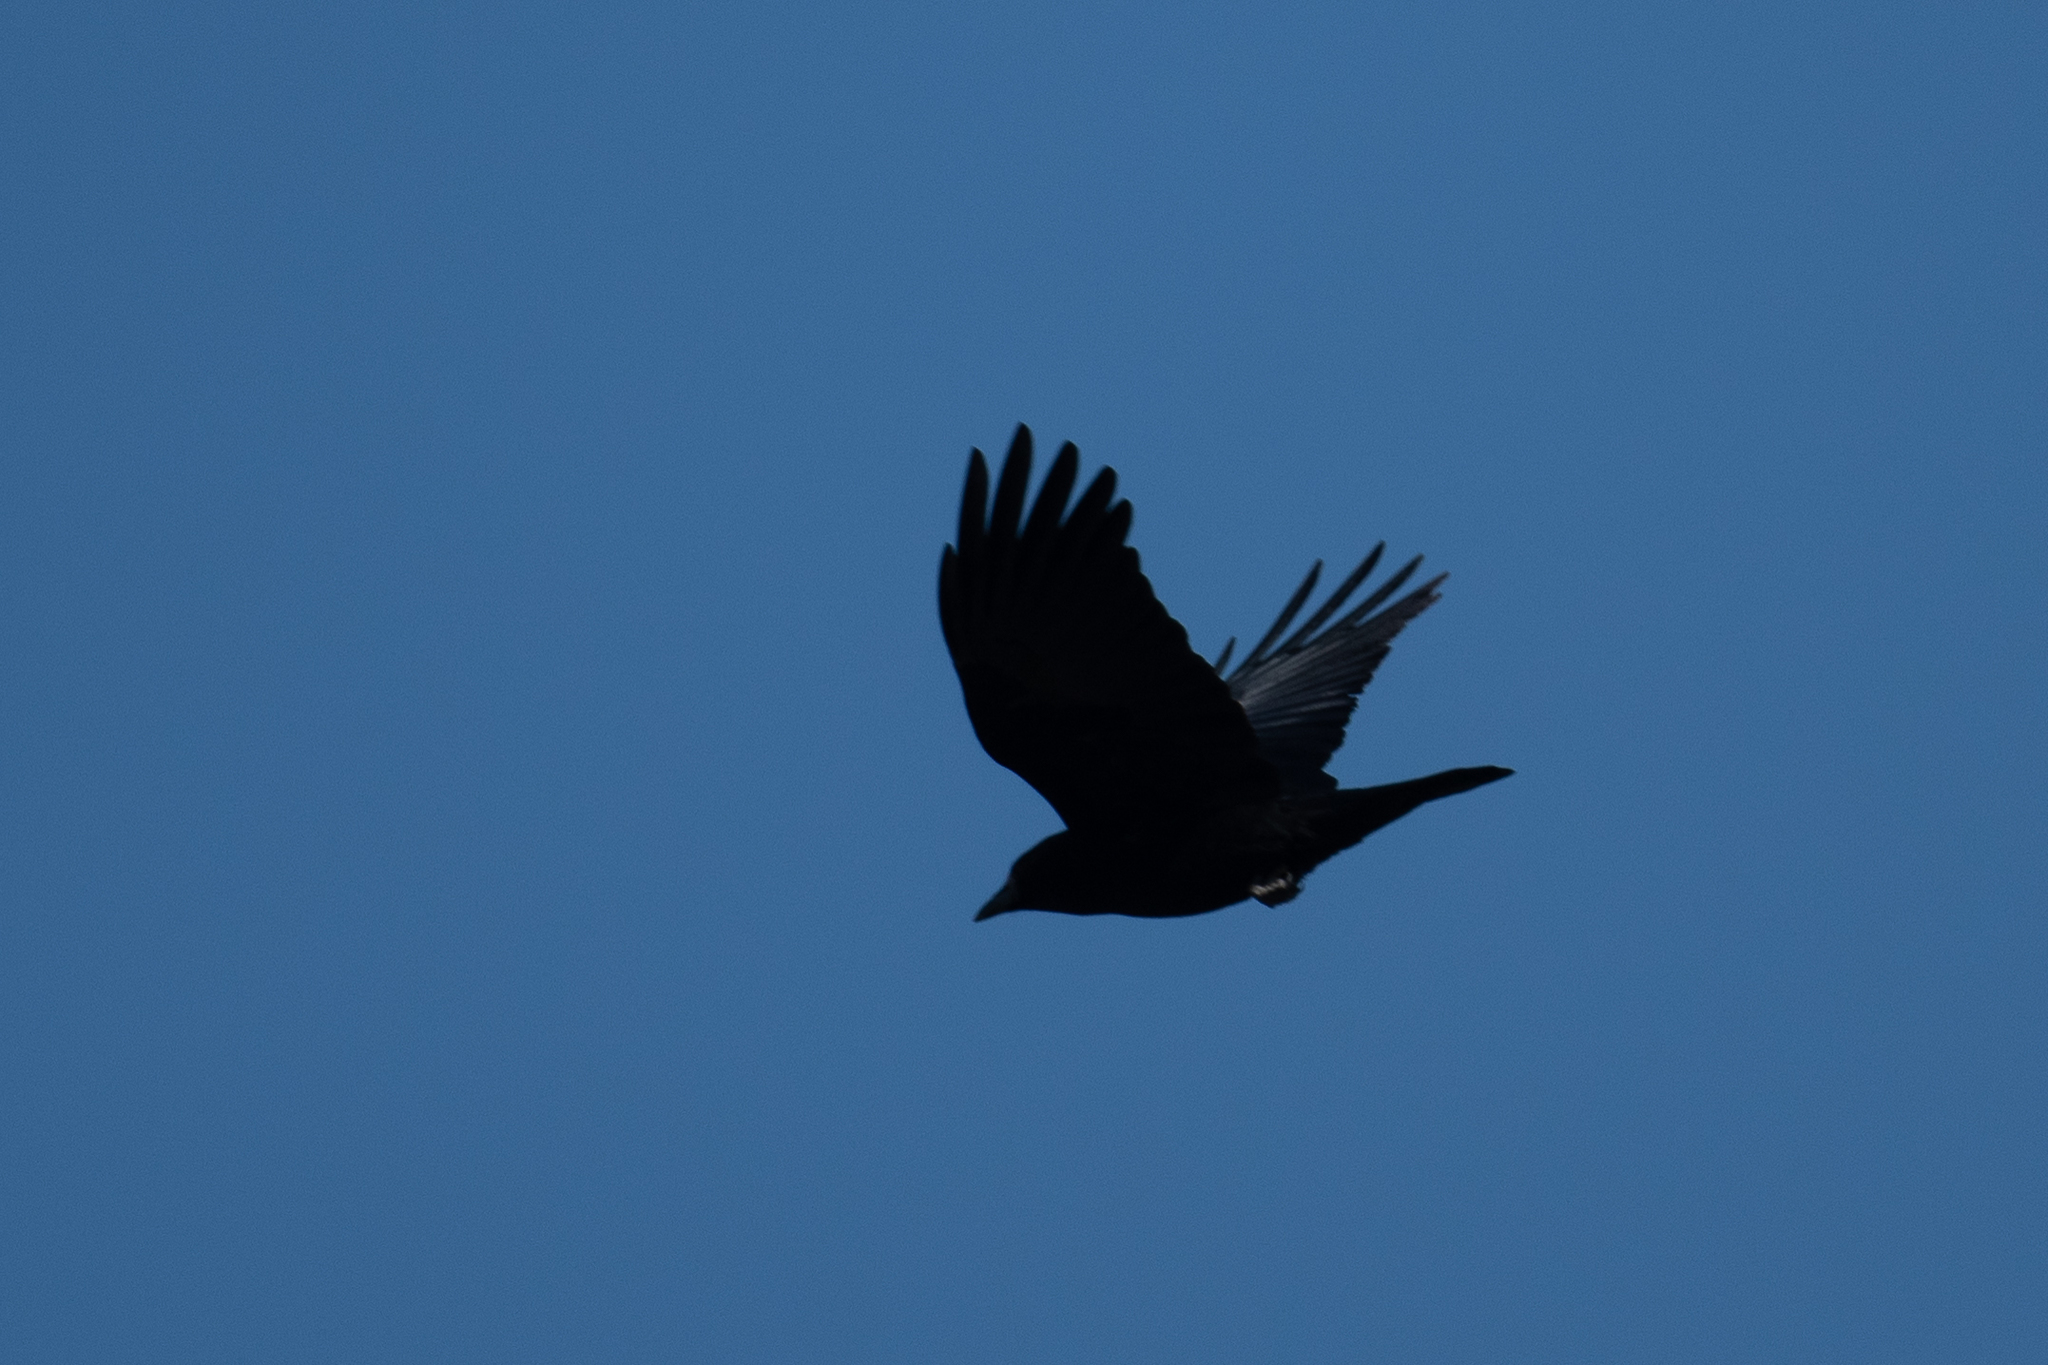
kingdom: Animalia
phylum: Chordata
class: Aves
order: Passeriformes
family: Corvidae
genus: Corvus
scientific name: Corvus brachyrhynchos
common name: American crow
